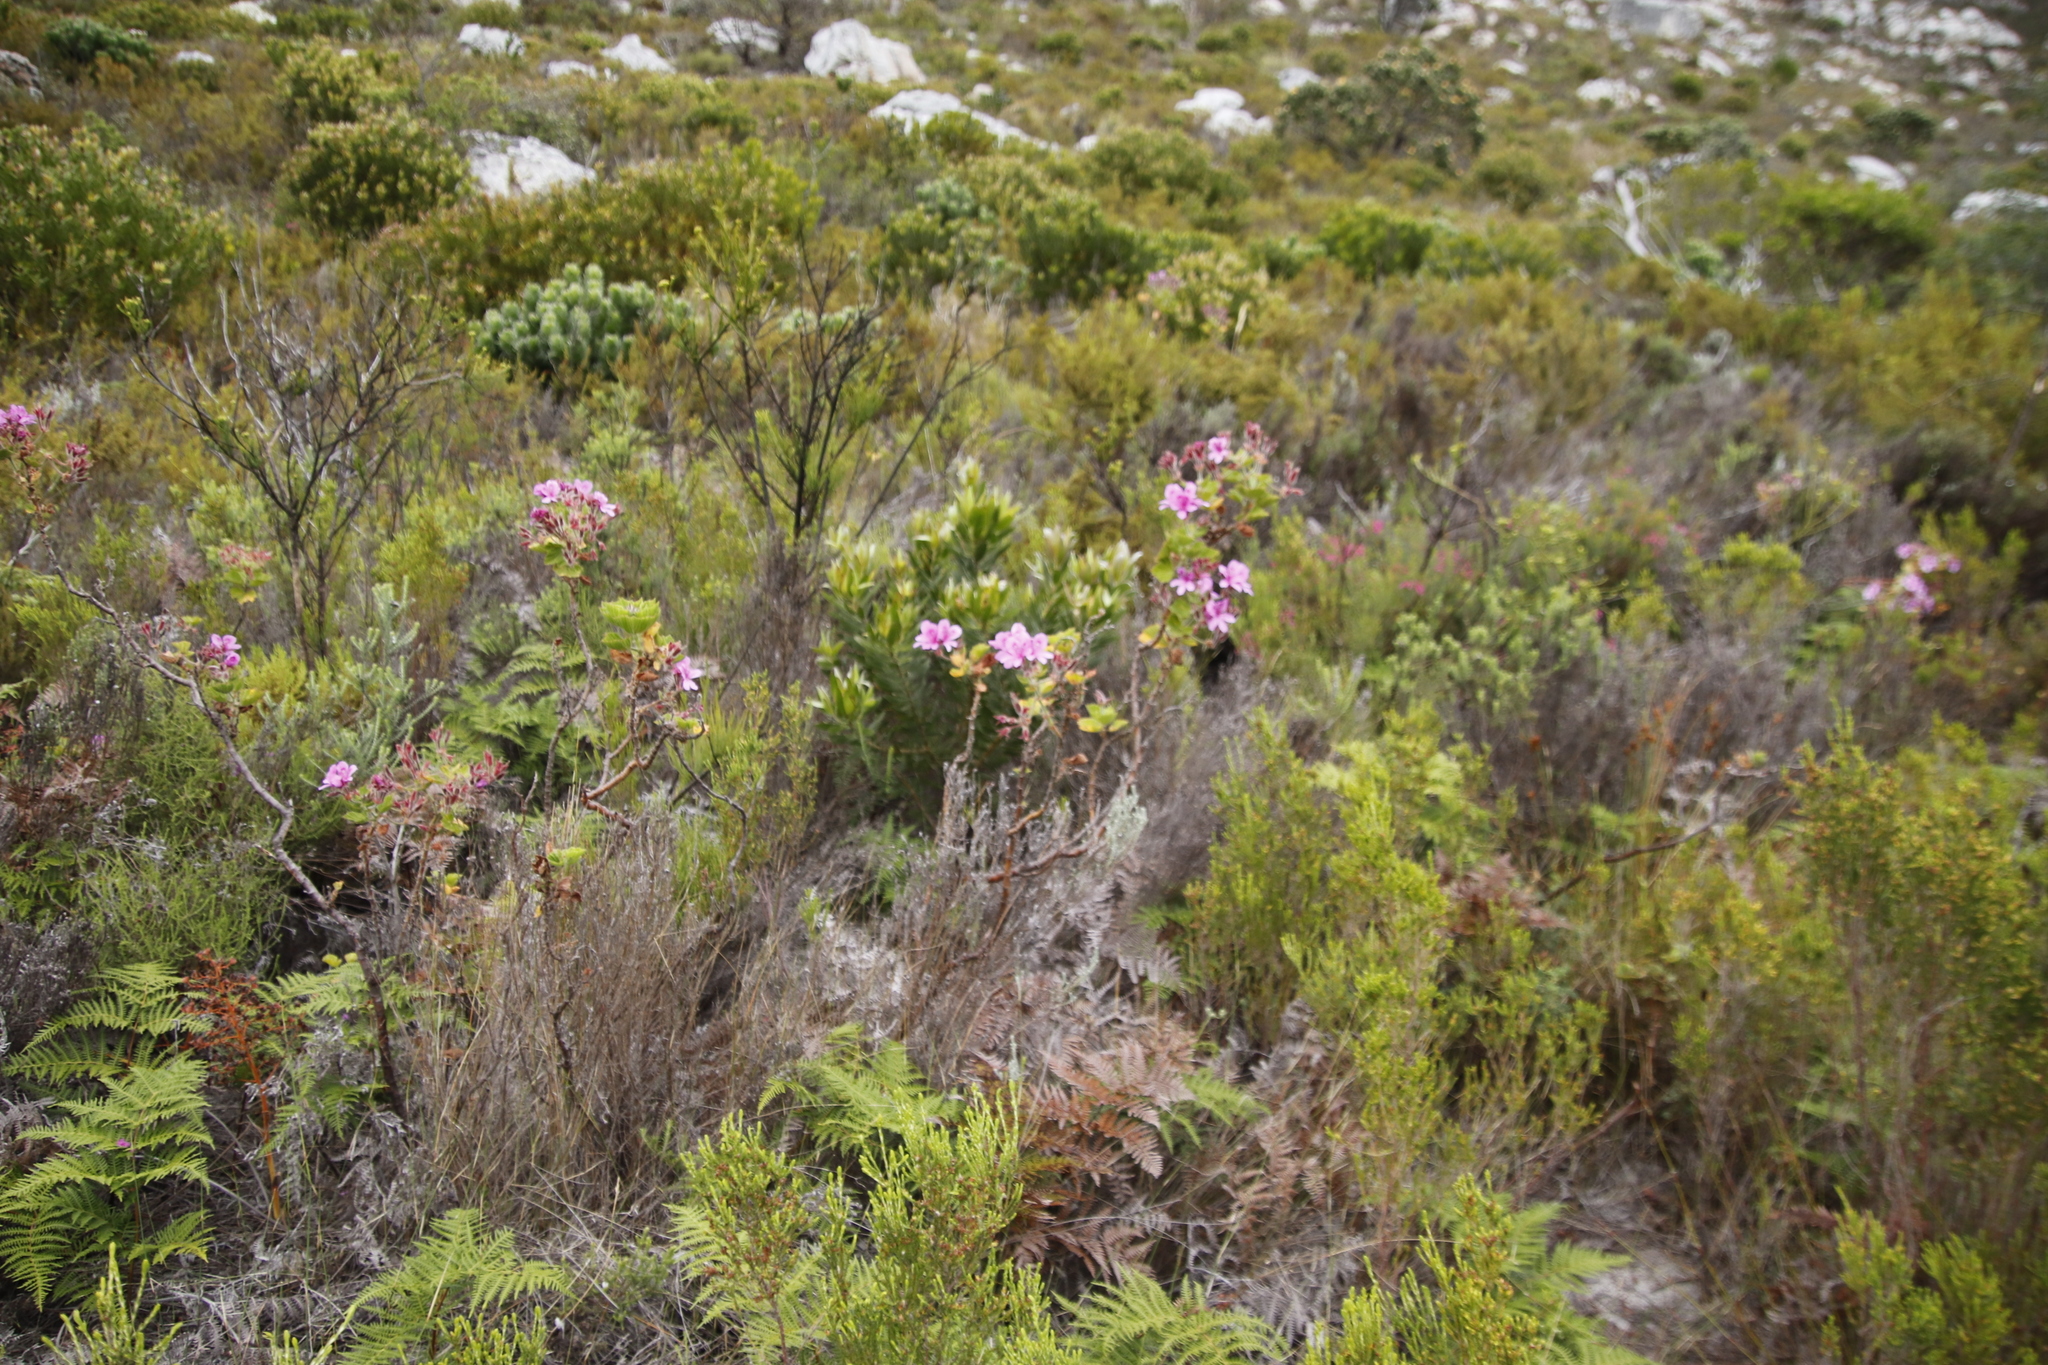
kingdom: Plantae
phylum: Tracheophyta
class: Magnoliopsida
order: Geraniales
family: Geraniaceae
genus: Pelargonium
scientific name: Pelargonium cucullatum
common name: Tree pelargonium
